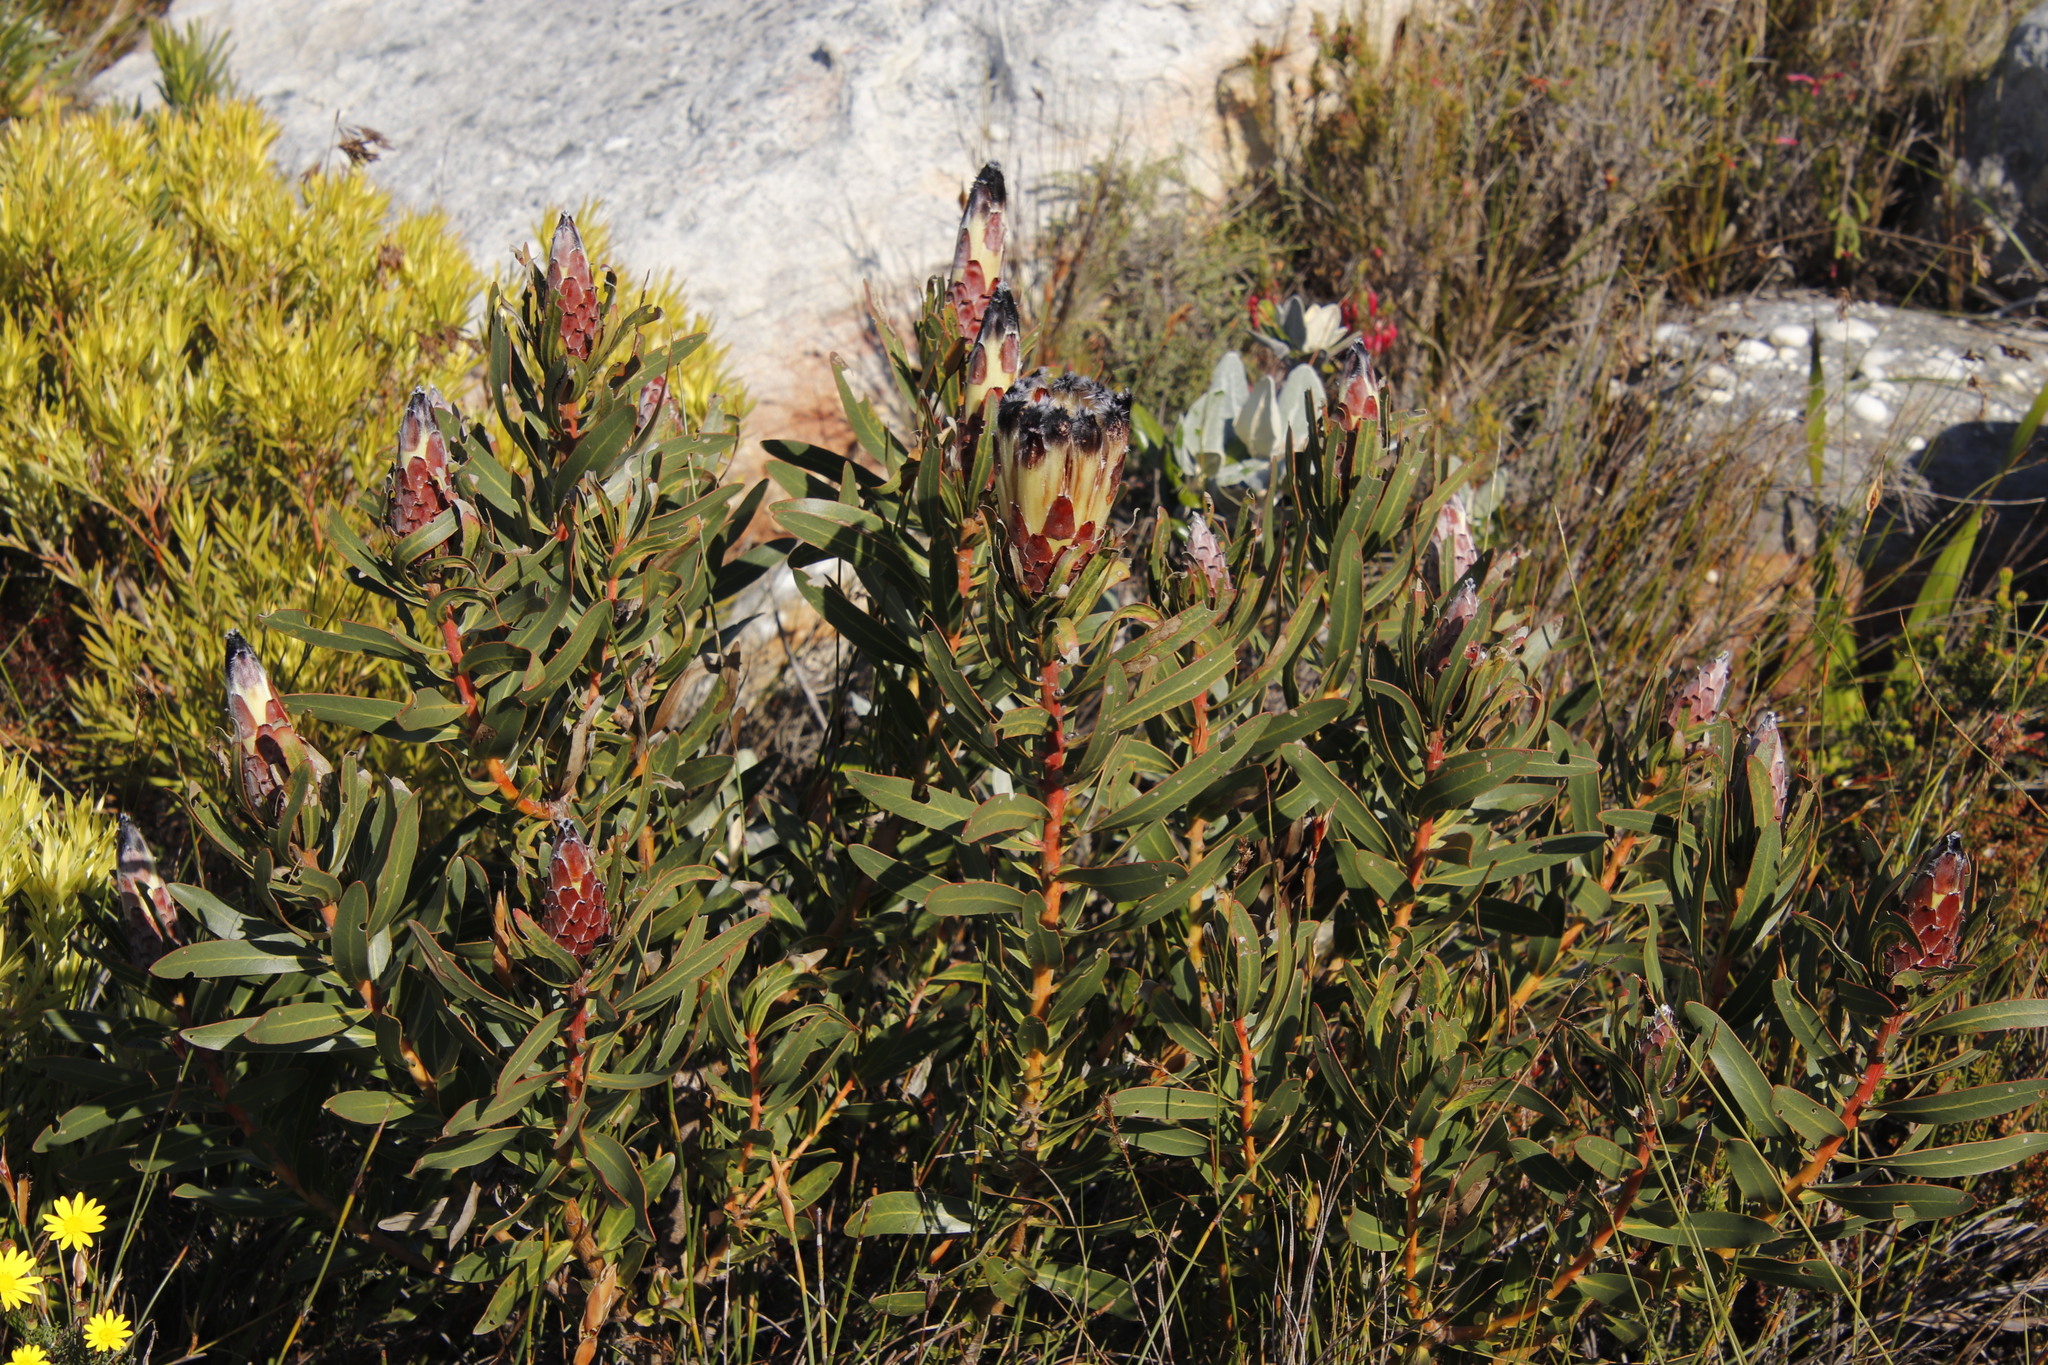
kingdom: Plantae
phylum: Tracheophyta
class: Magnoliopsida
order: Proteales
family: Proteaceae
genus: Protea
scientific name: Protea lepidocarpodendron
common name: Black-bearded protea
